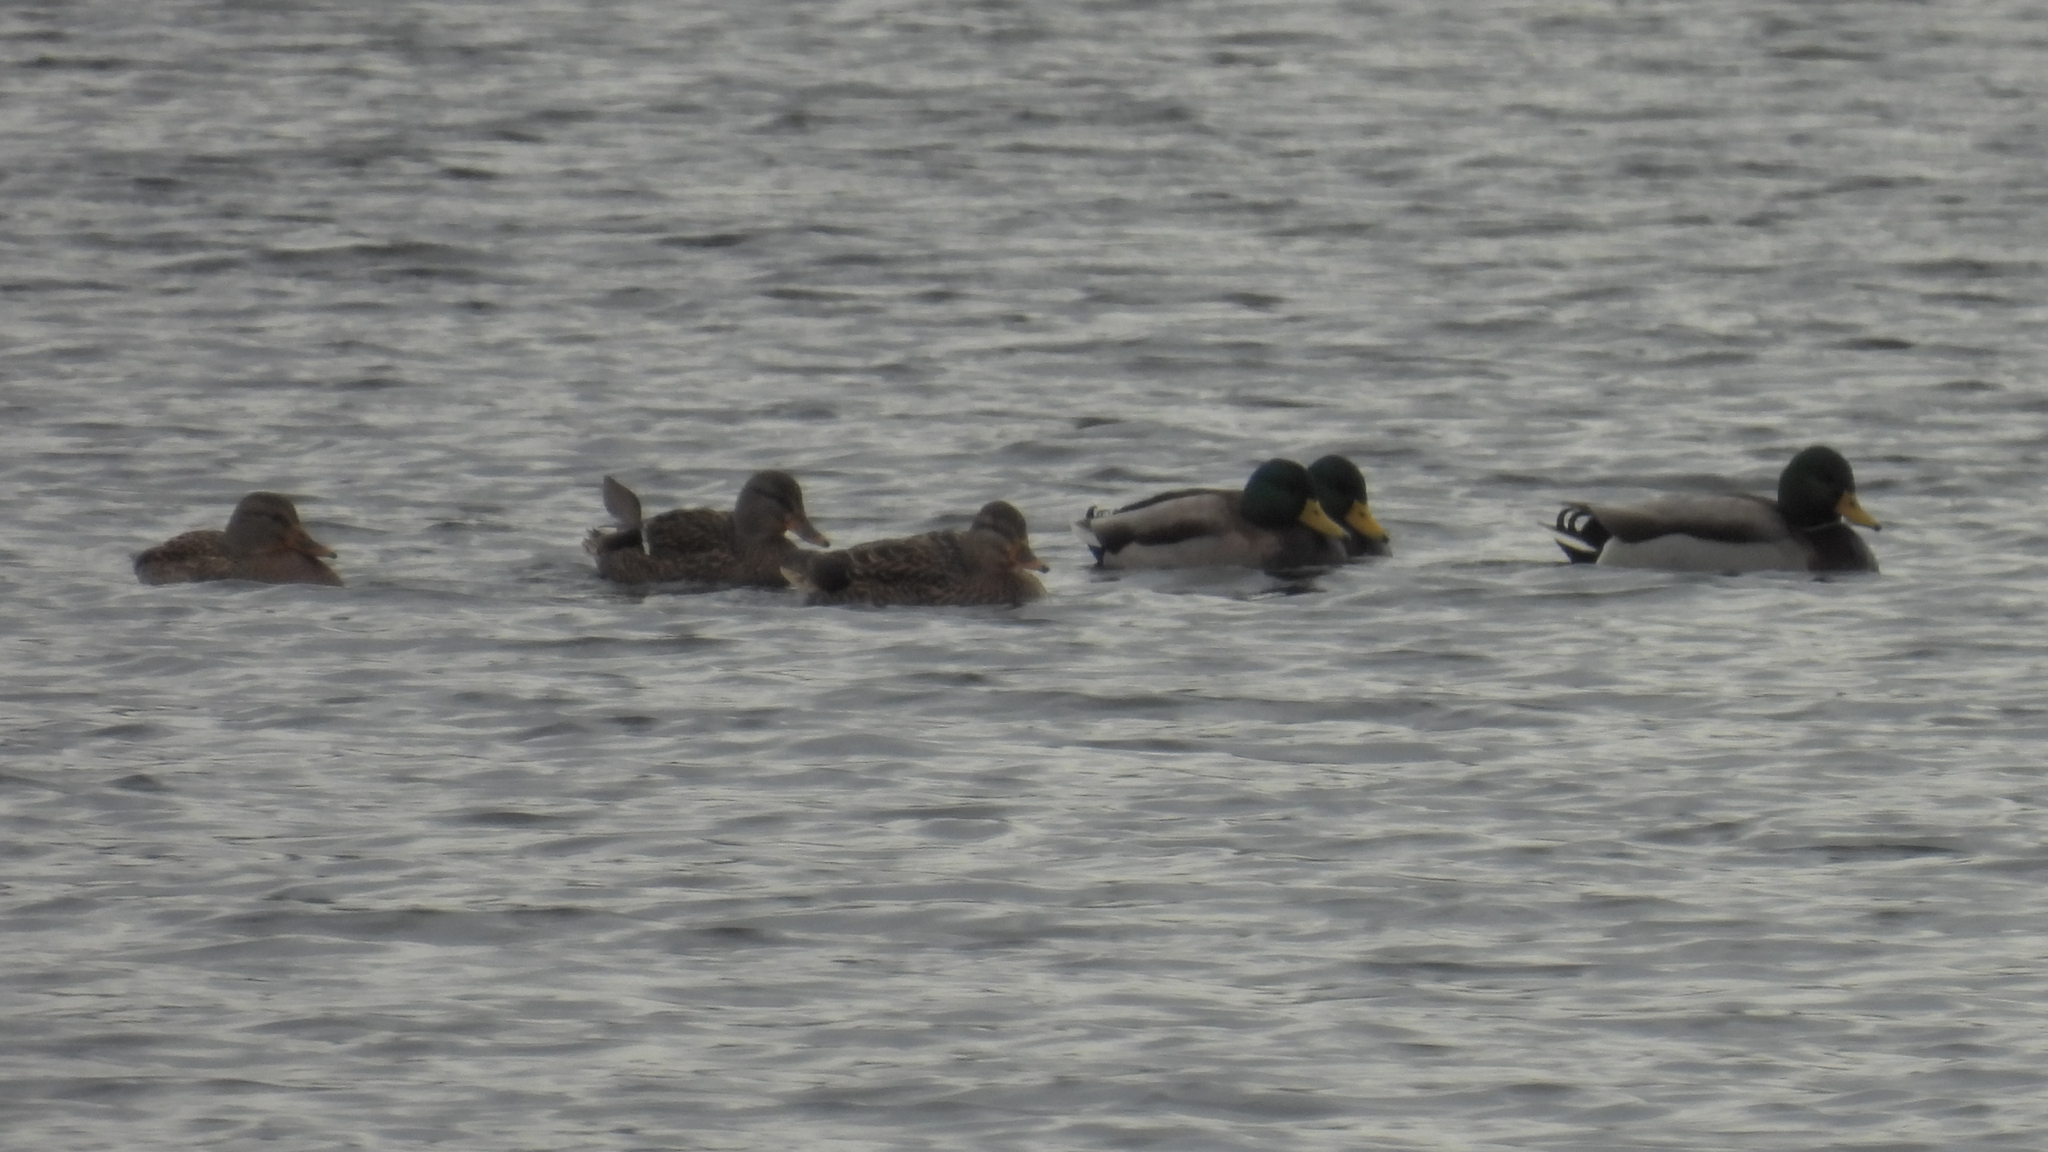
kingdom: Animalia
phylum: Chordata
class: Aves
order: Anseriformes
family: Anatidae
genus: Anas
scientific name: Anas platyrhynchos
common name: Mallard
